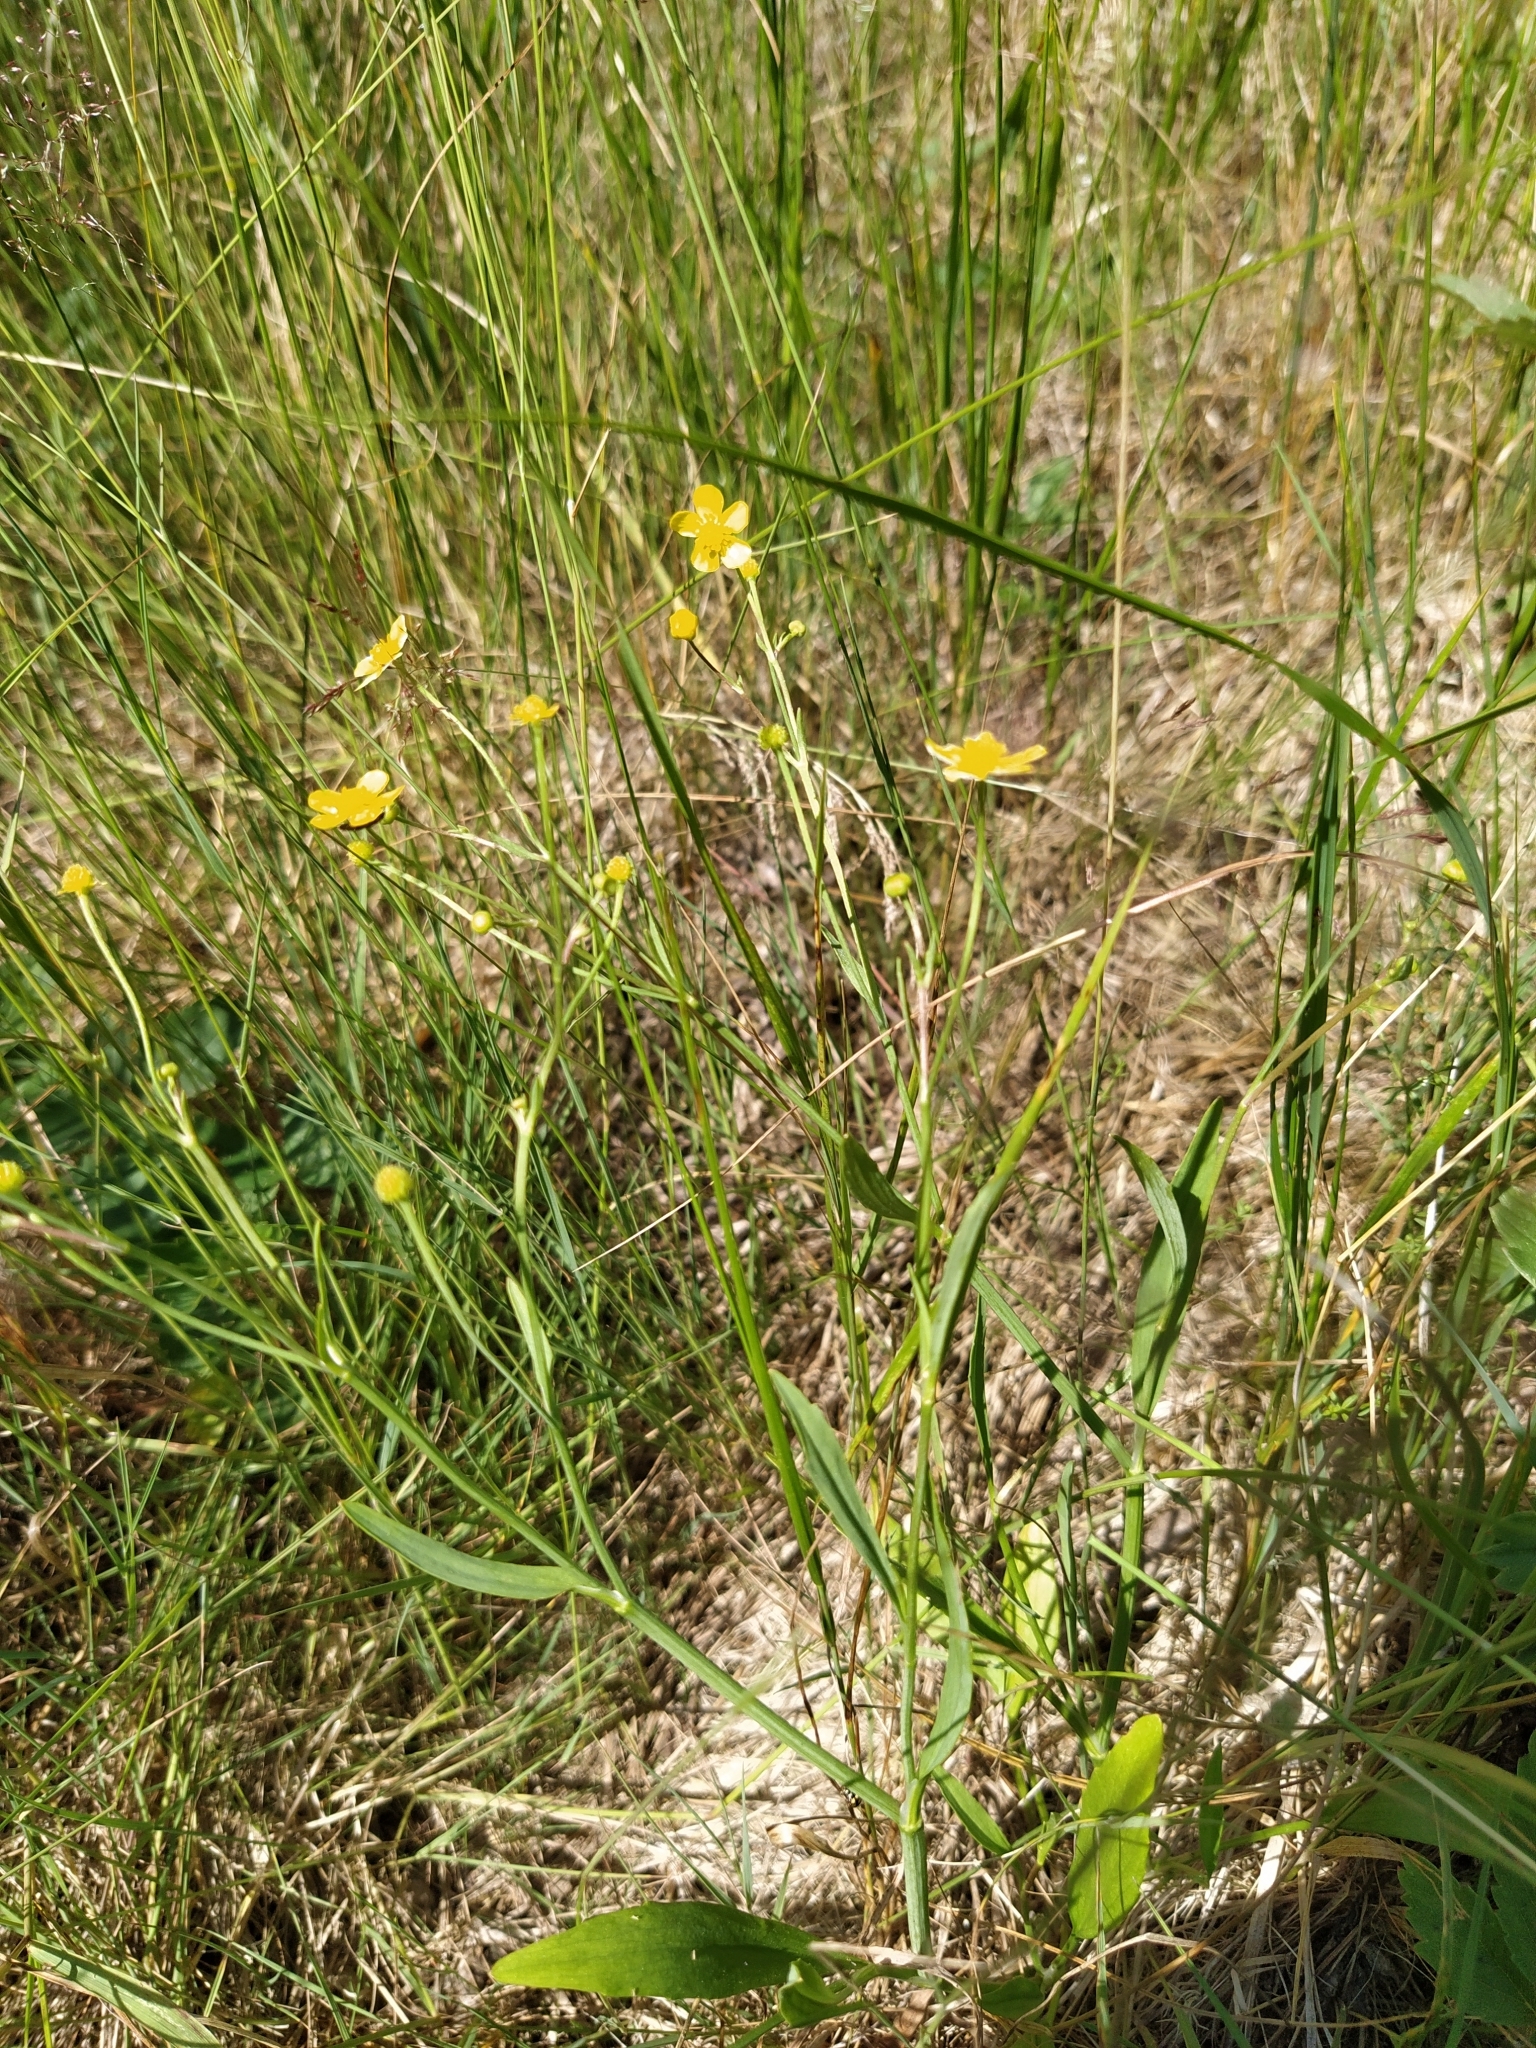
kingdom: Plantae
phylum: Tracheophyta
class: Magnoliopsida
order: Ranunculales
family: Ranunculaceae
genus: Ranunculus
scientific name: Ranunculus flammula
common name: Lesser spearwort
